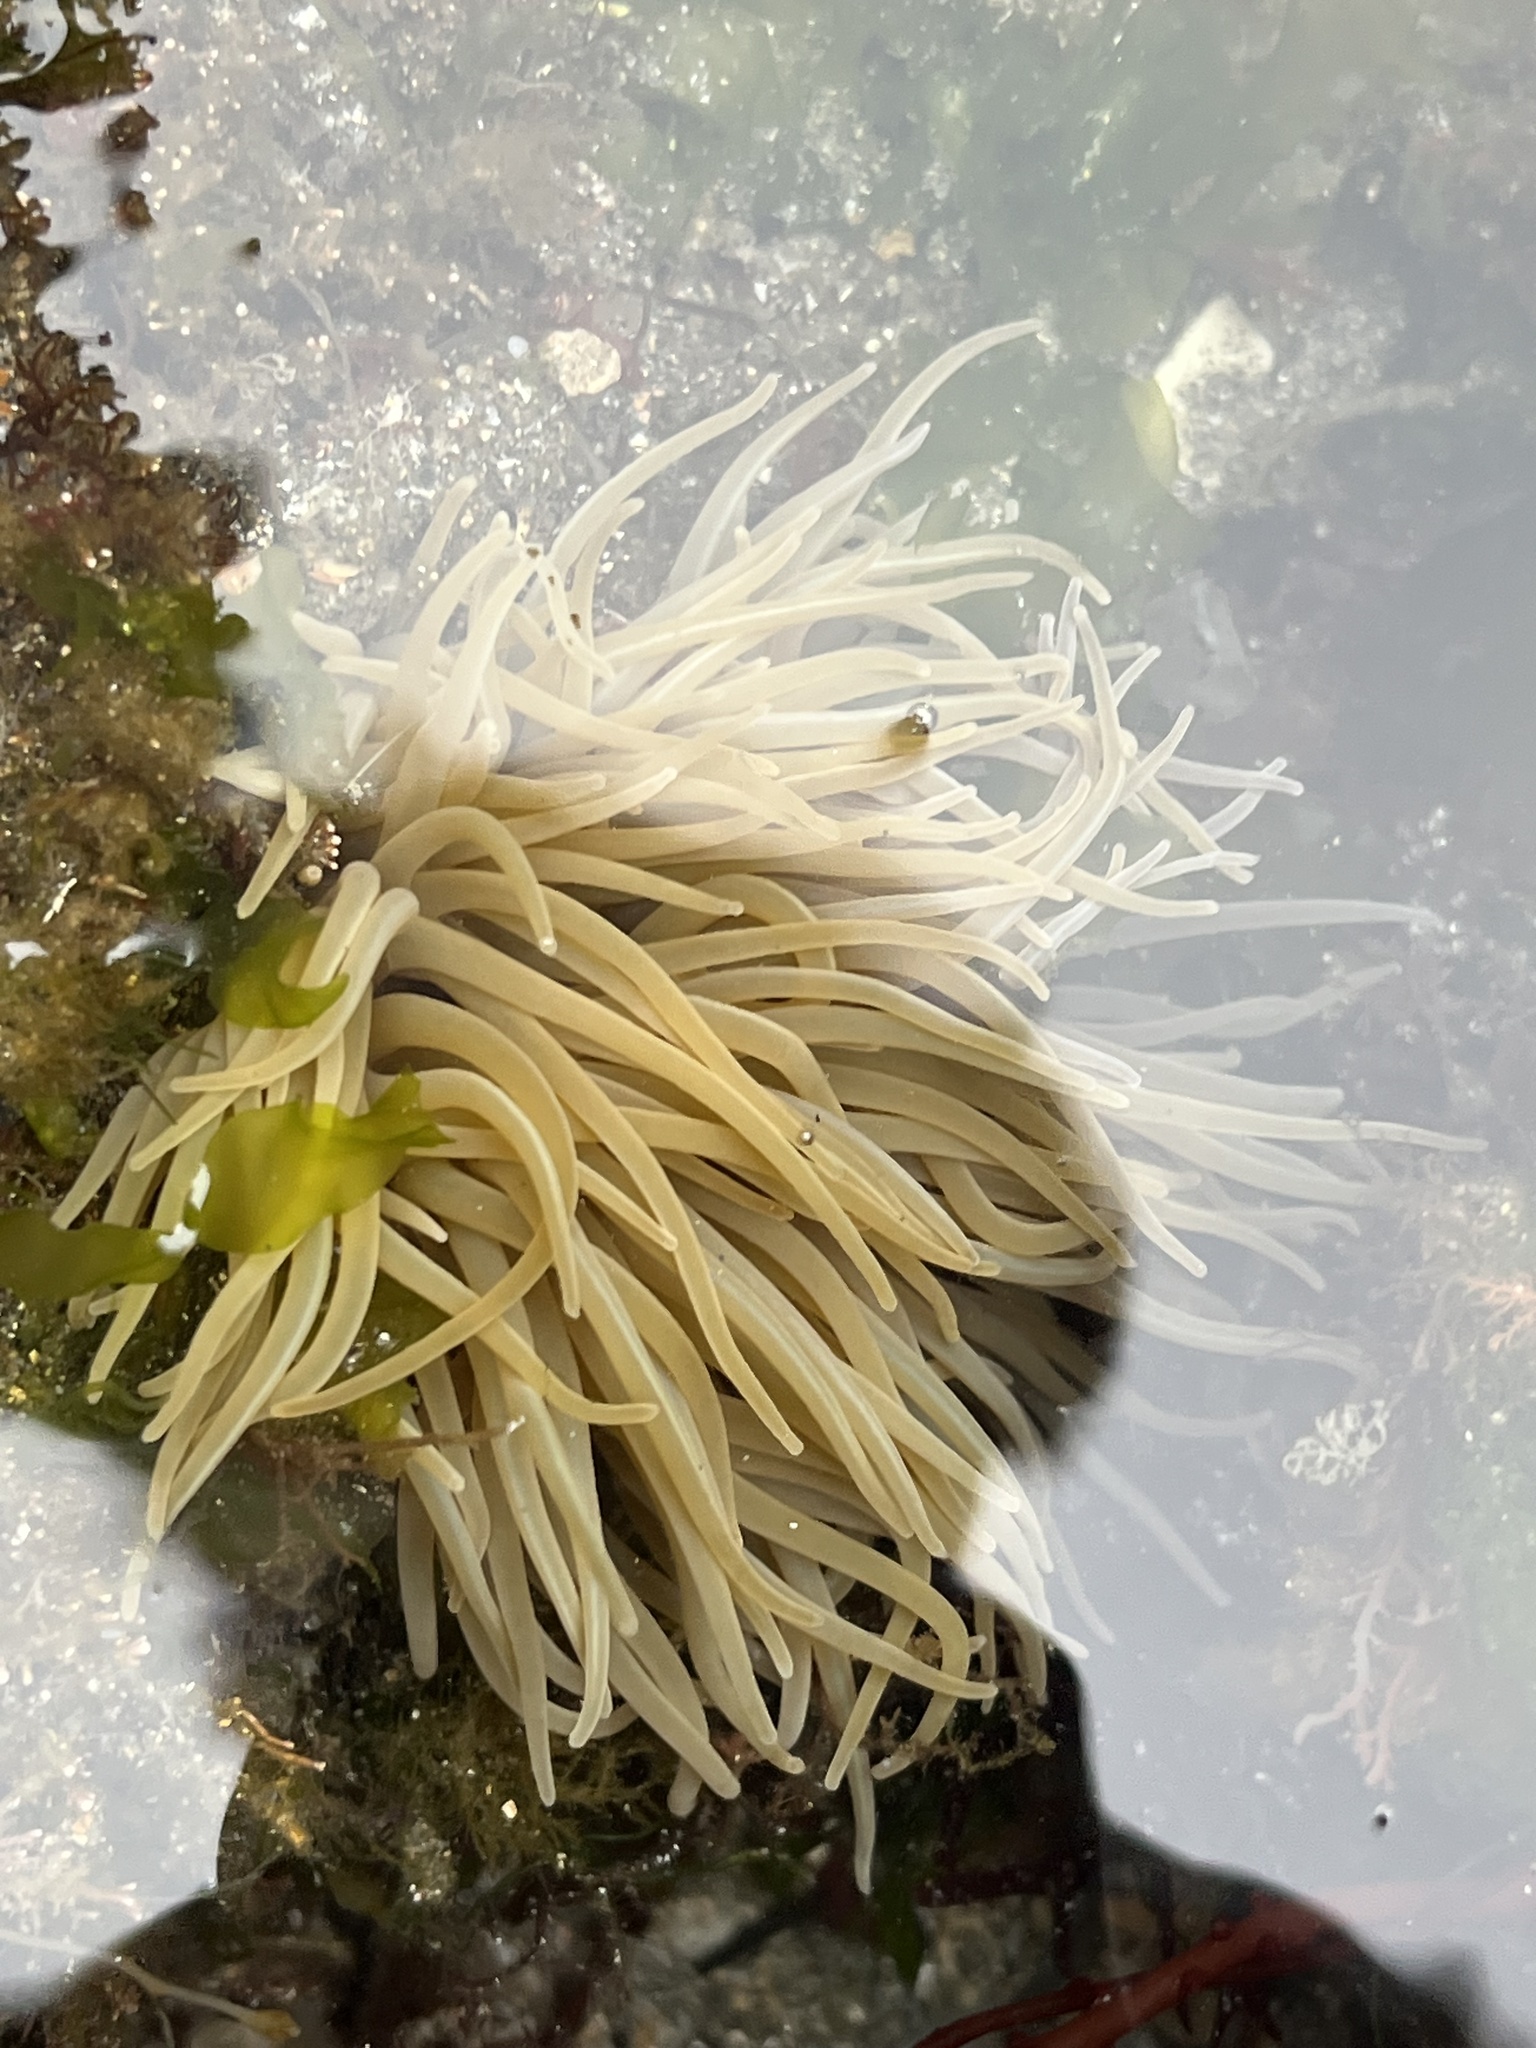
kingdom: Animalia
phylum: Cnidaria
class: Anthozoa
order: Actiniaria
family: Actiniidae
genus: Anemonia
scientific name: Anemonia viridis
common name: Snakelocks anemone
